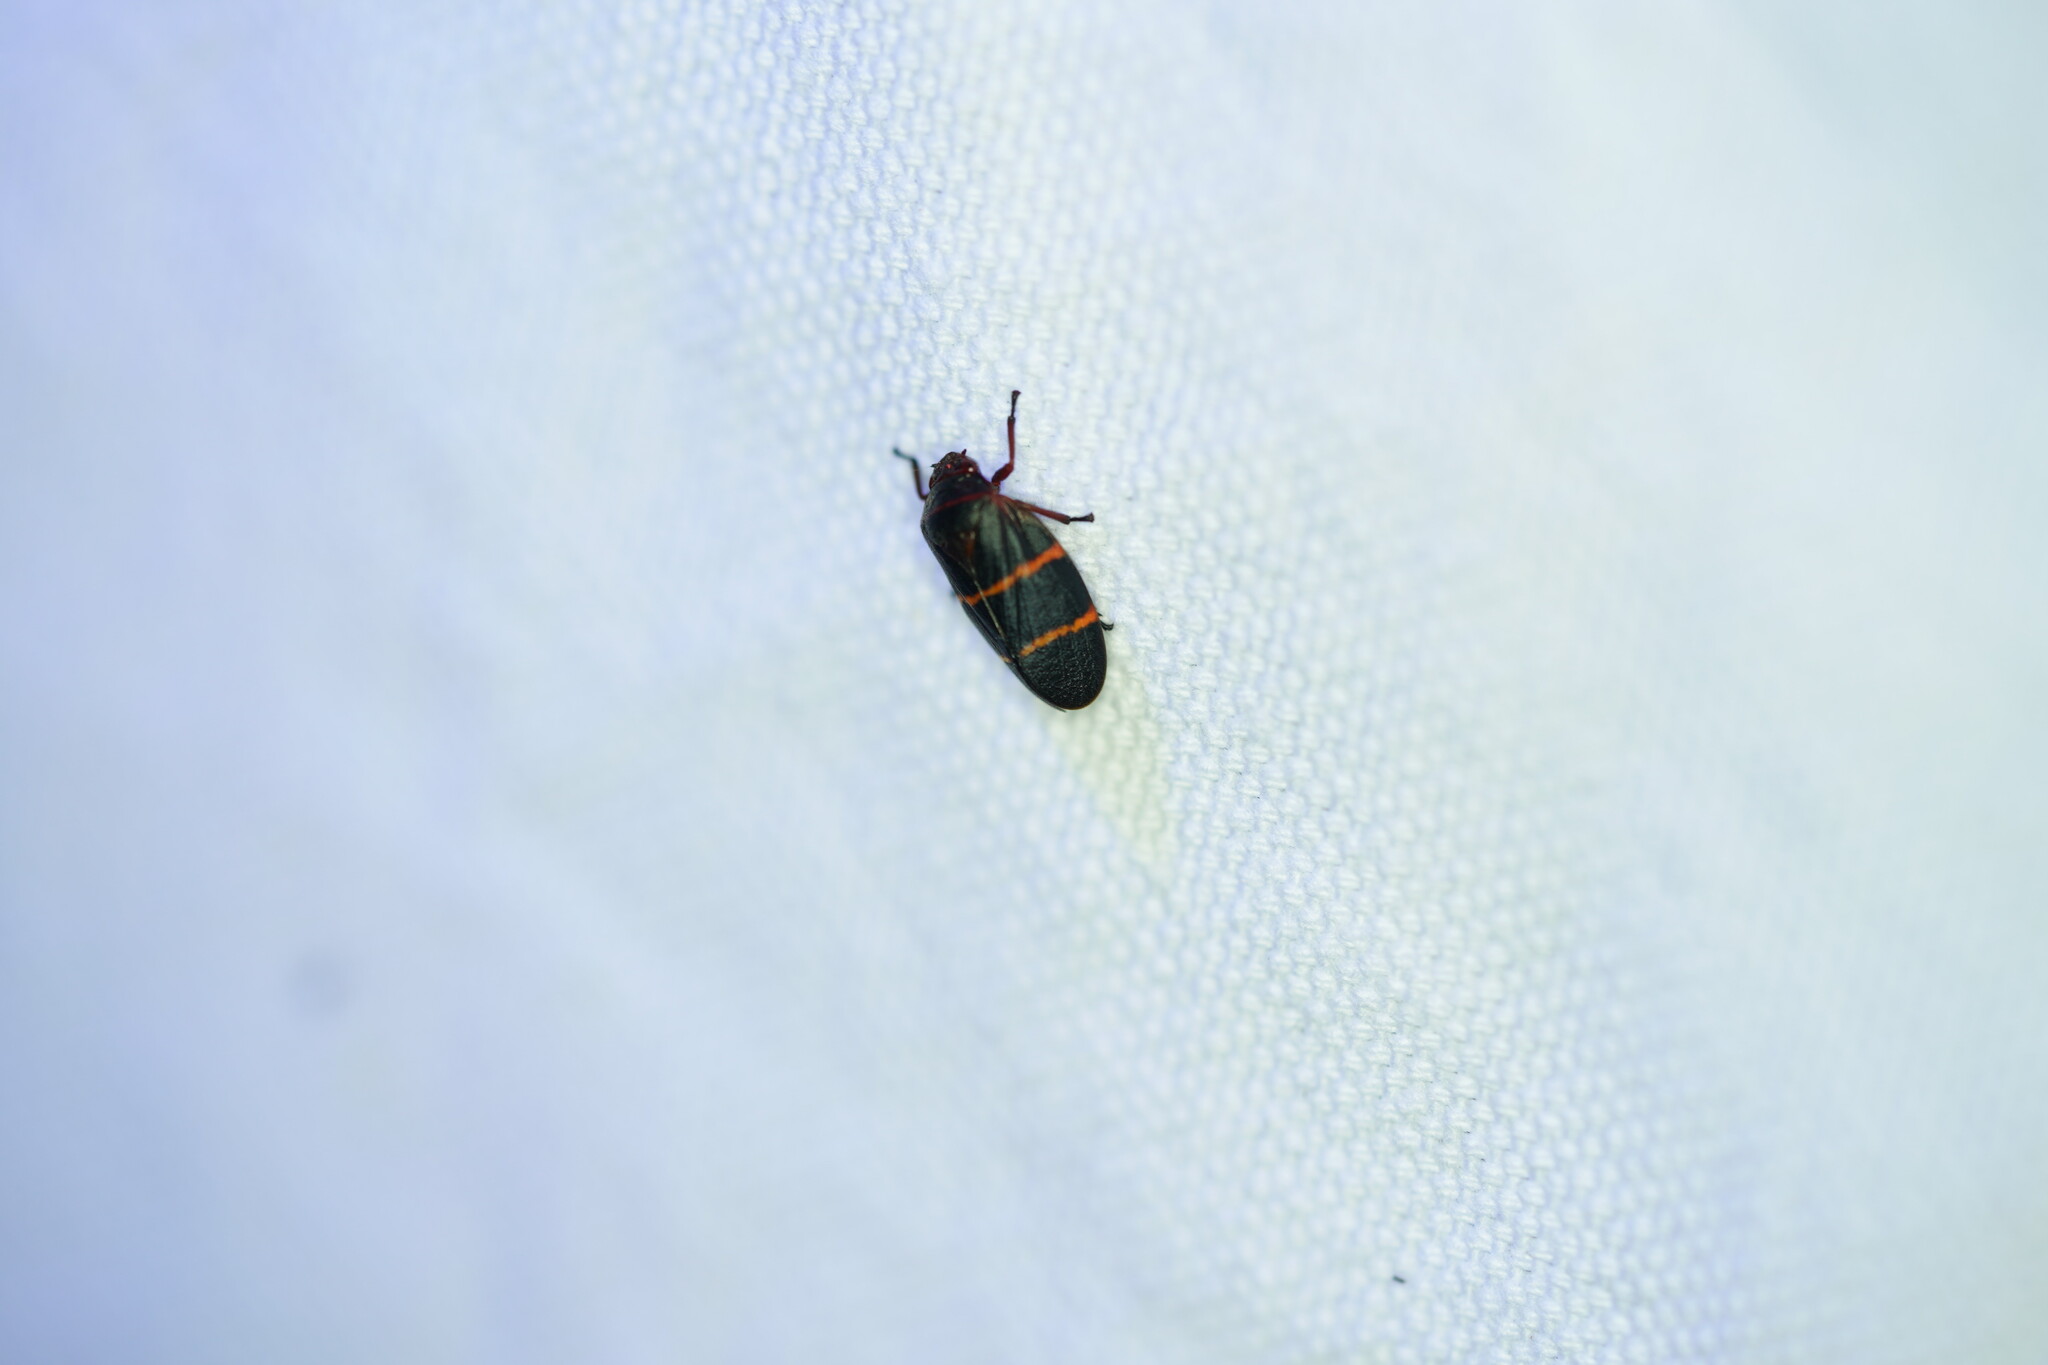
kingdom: Animalia
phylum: Arthropoda
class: Insecta
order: Hemiptera
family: Cercopidae
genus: Prosapia
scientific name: Prosapia bicincta
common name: Twolined spittlebug
